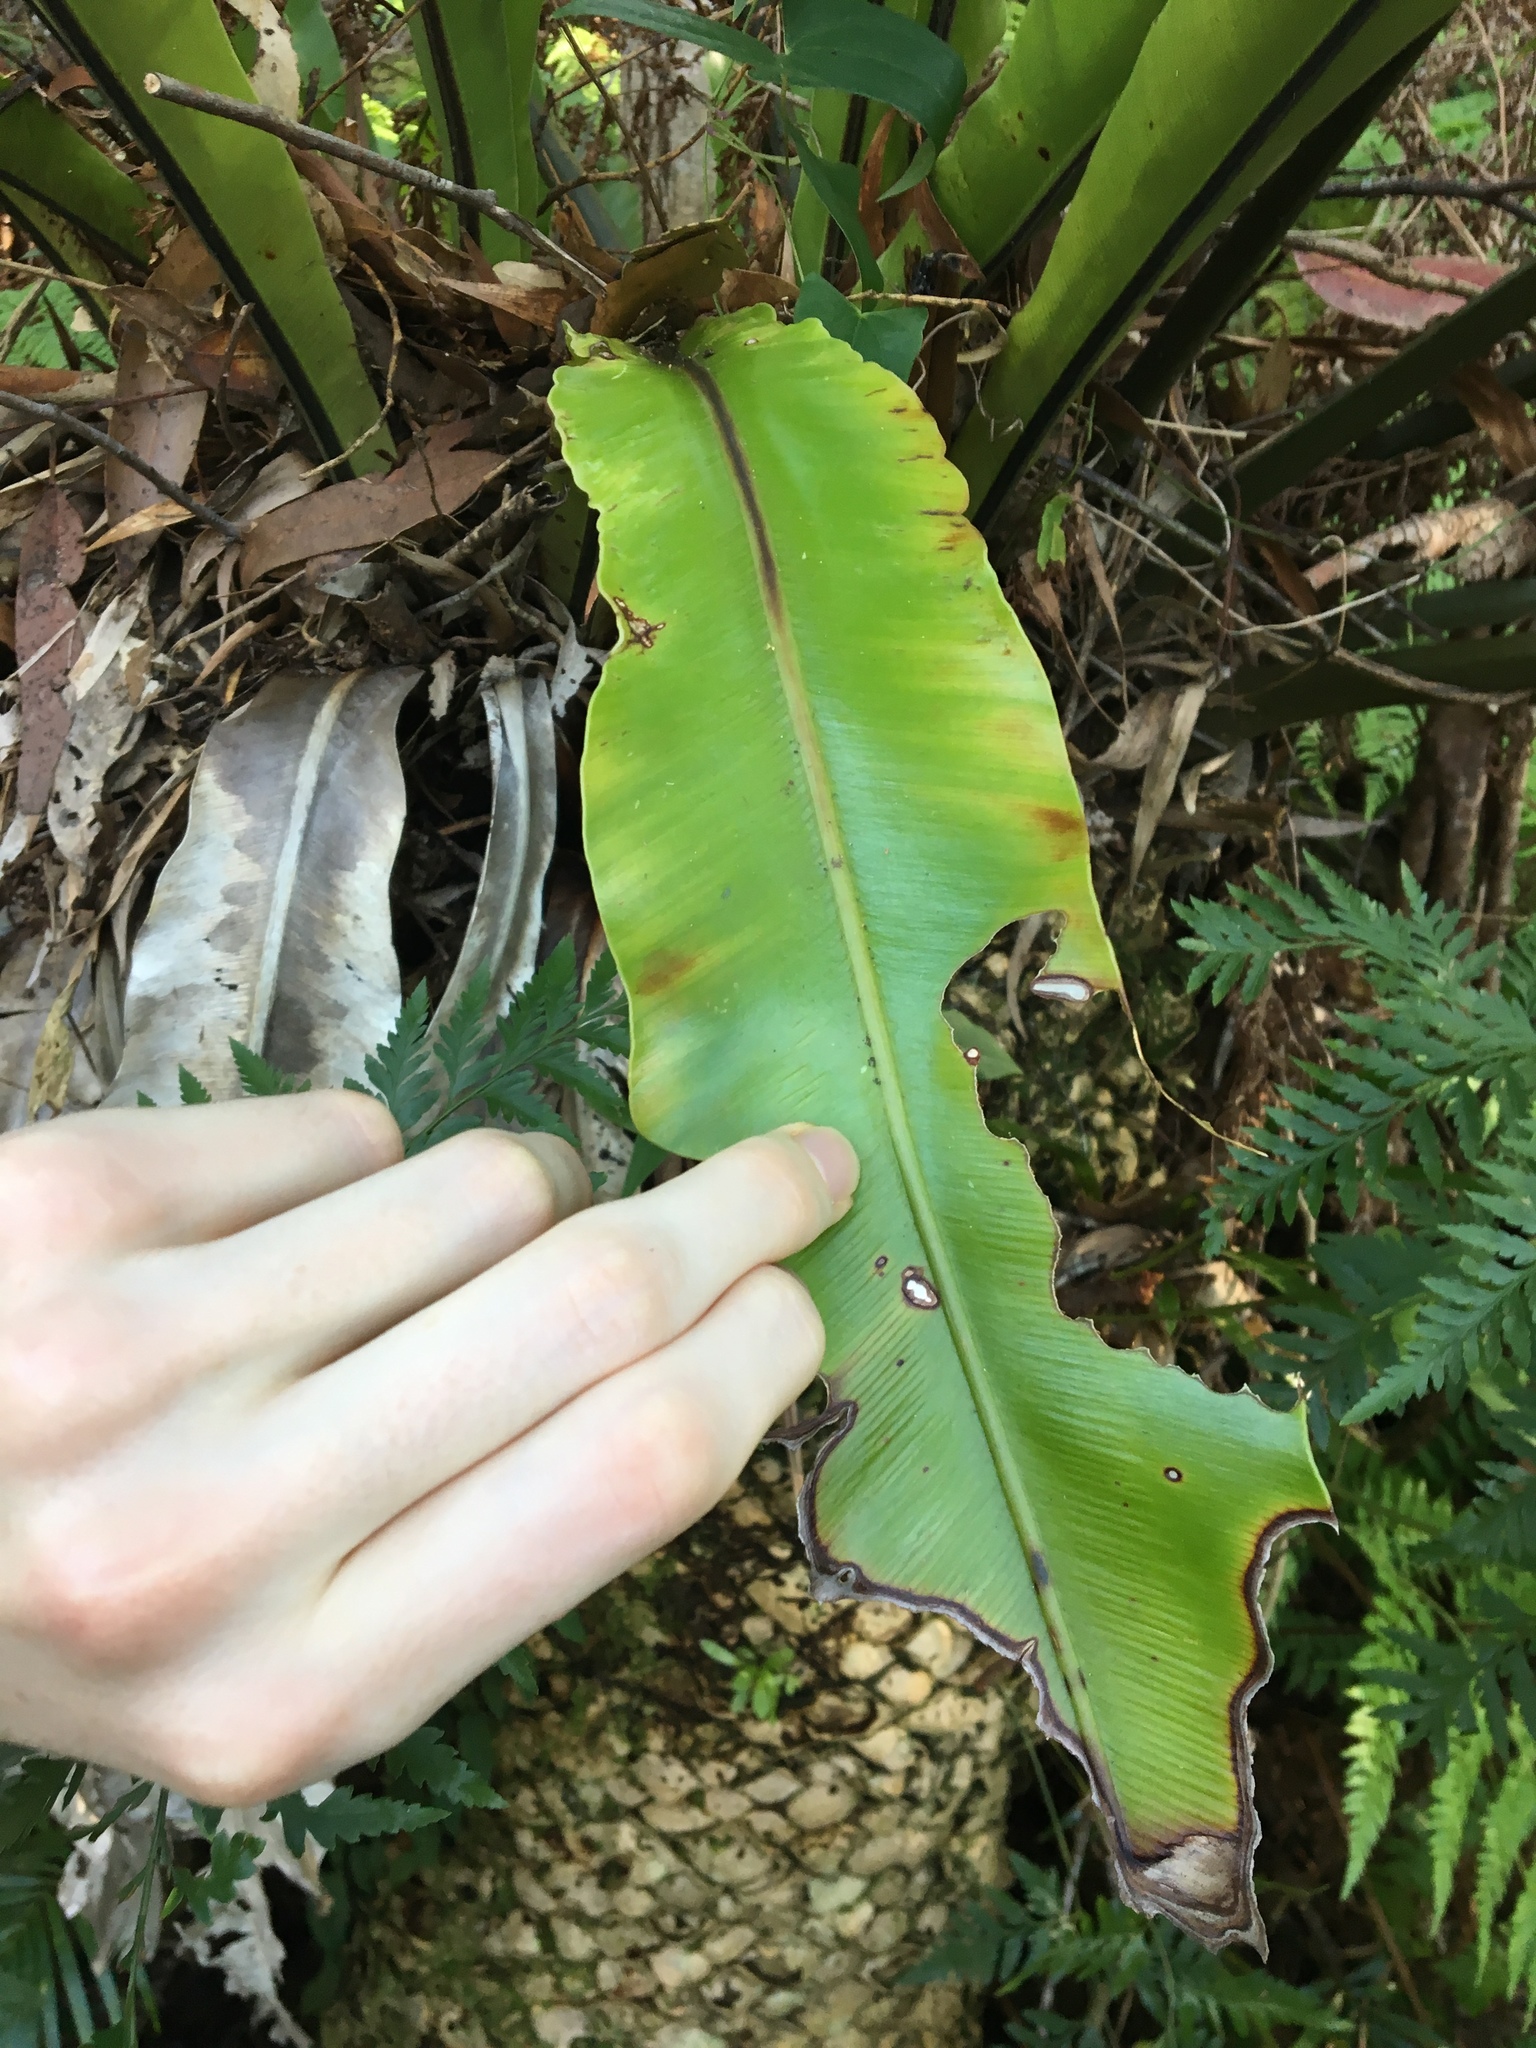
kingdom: Plantae
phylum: Tracheophyta
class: Polypodiopsida
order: Polypodiales
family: Aspleniaceae
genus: Asplenium
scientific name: Asplenium australasicum
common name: Bird's-nest fern
